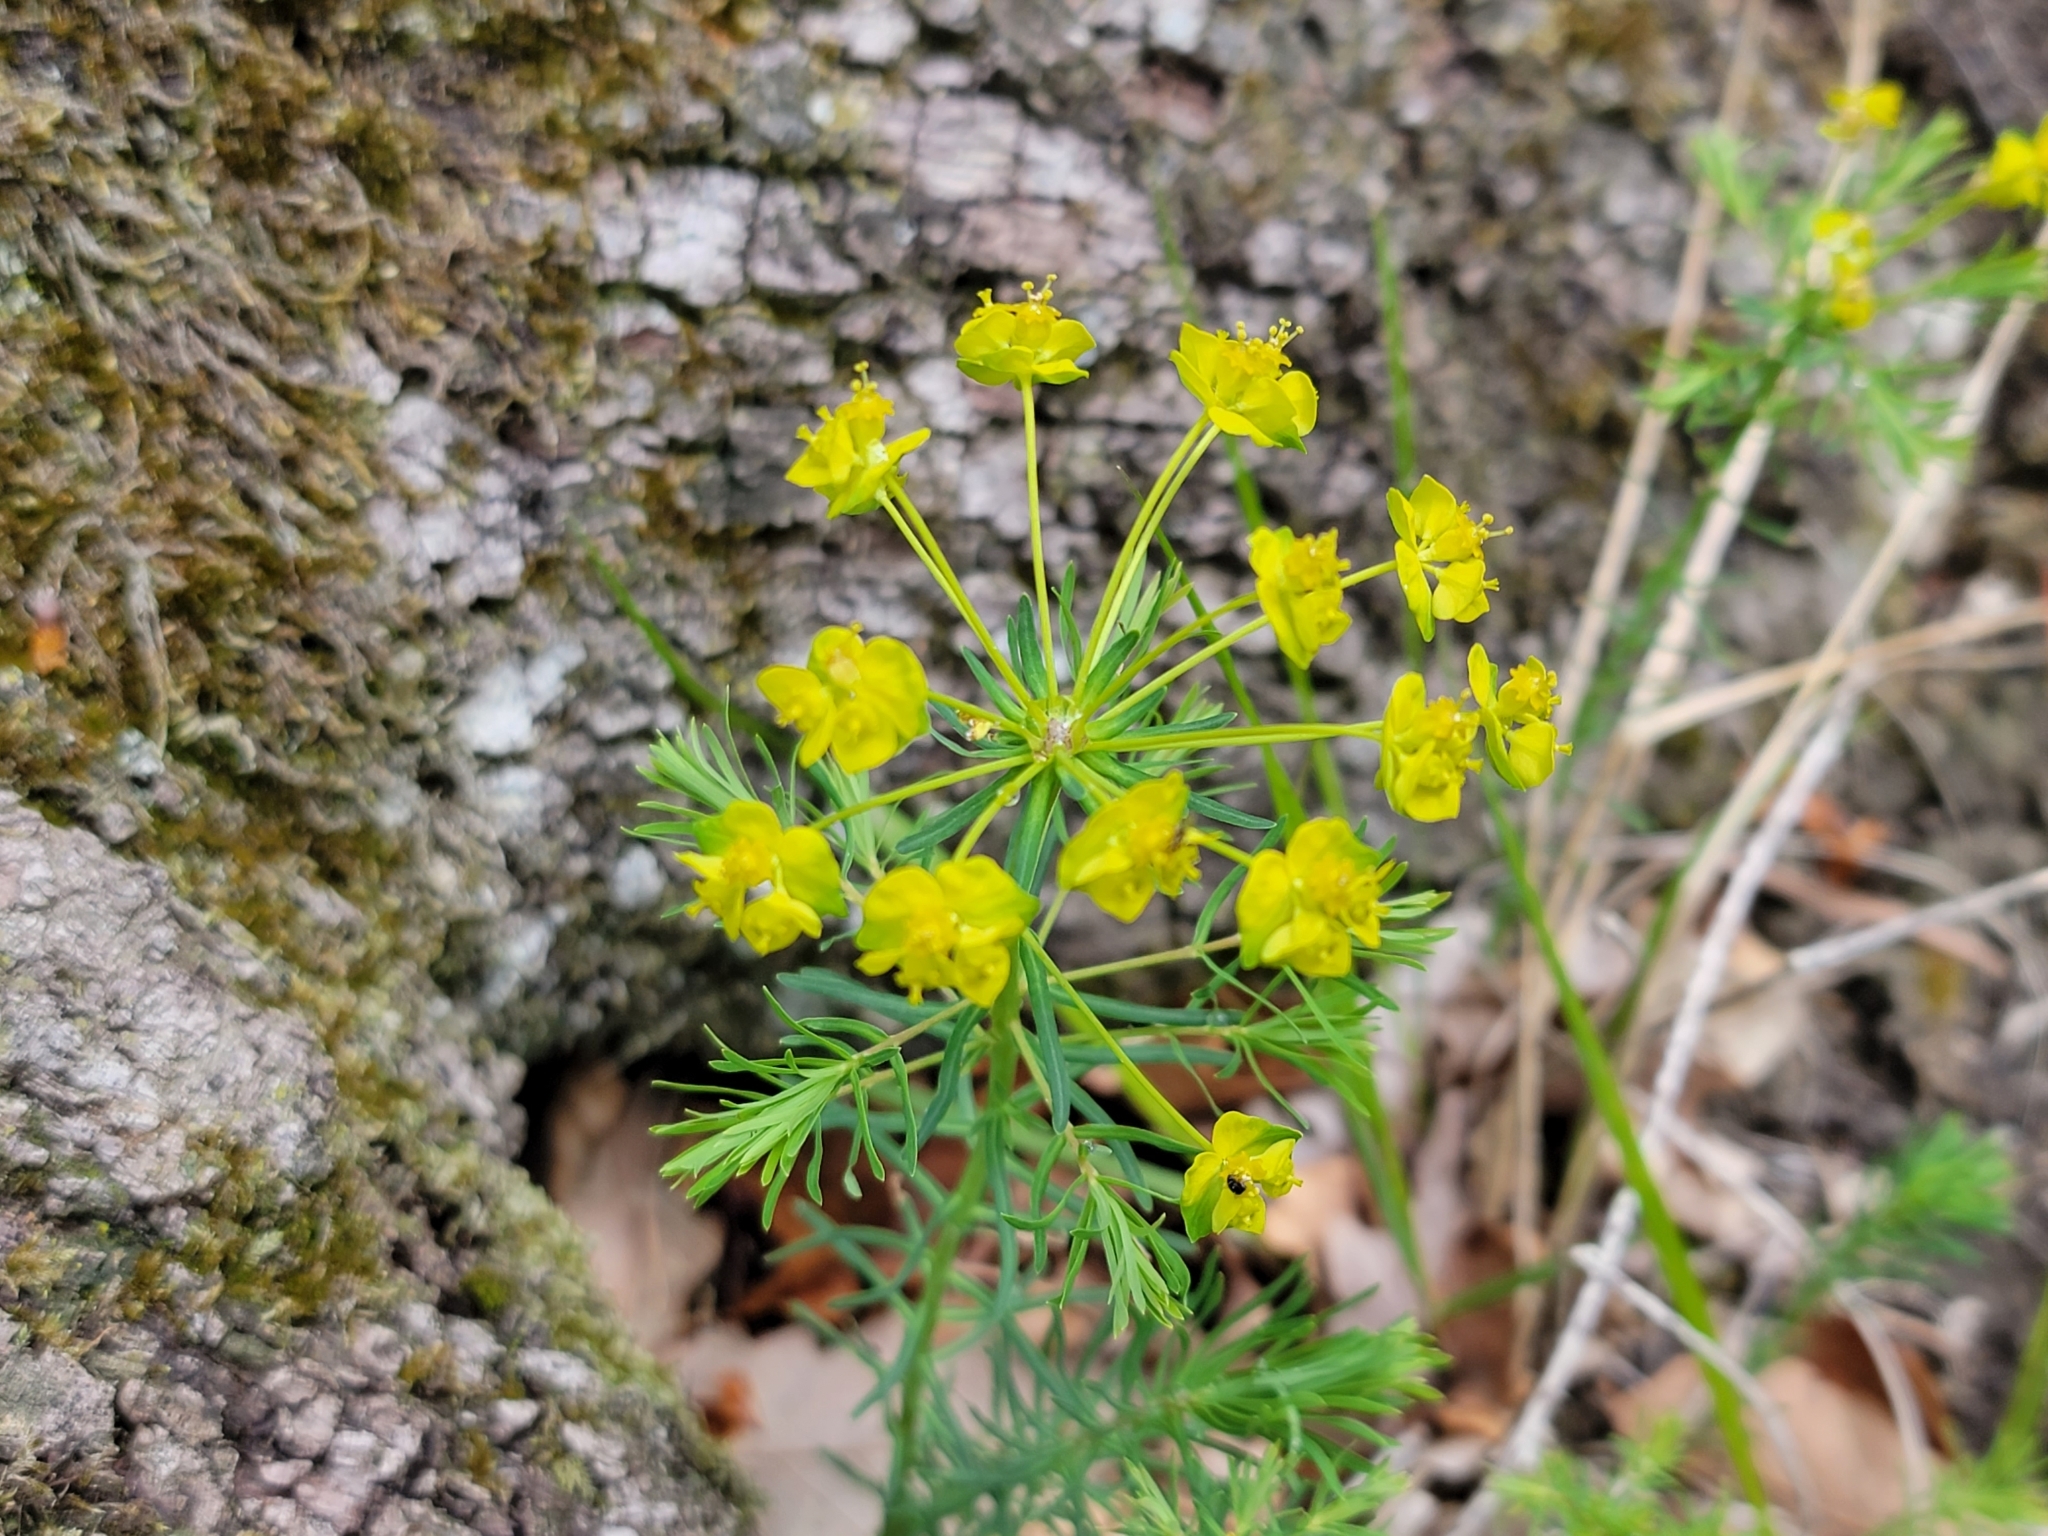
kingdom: Plantae
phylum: Tracheophyta
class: Magnoliopsida
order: Malpighiales
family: Euphorbiaceae
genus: Euphorbia
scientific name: Euphorbia cyparissias
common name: Cypress spurge
